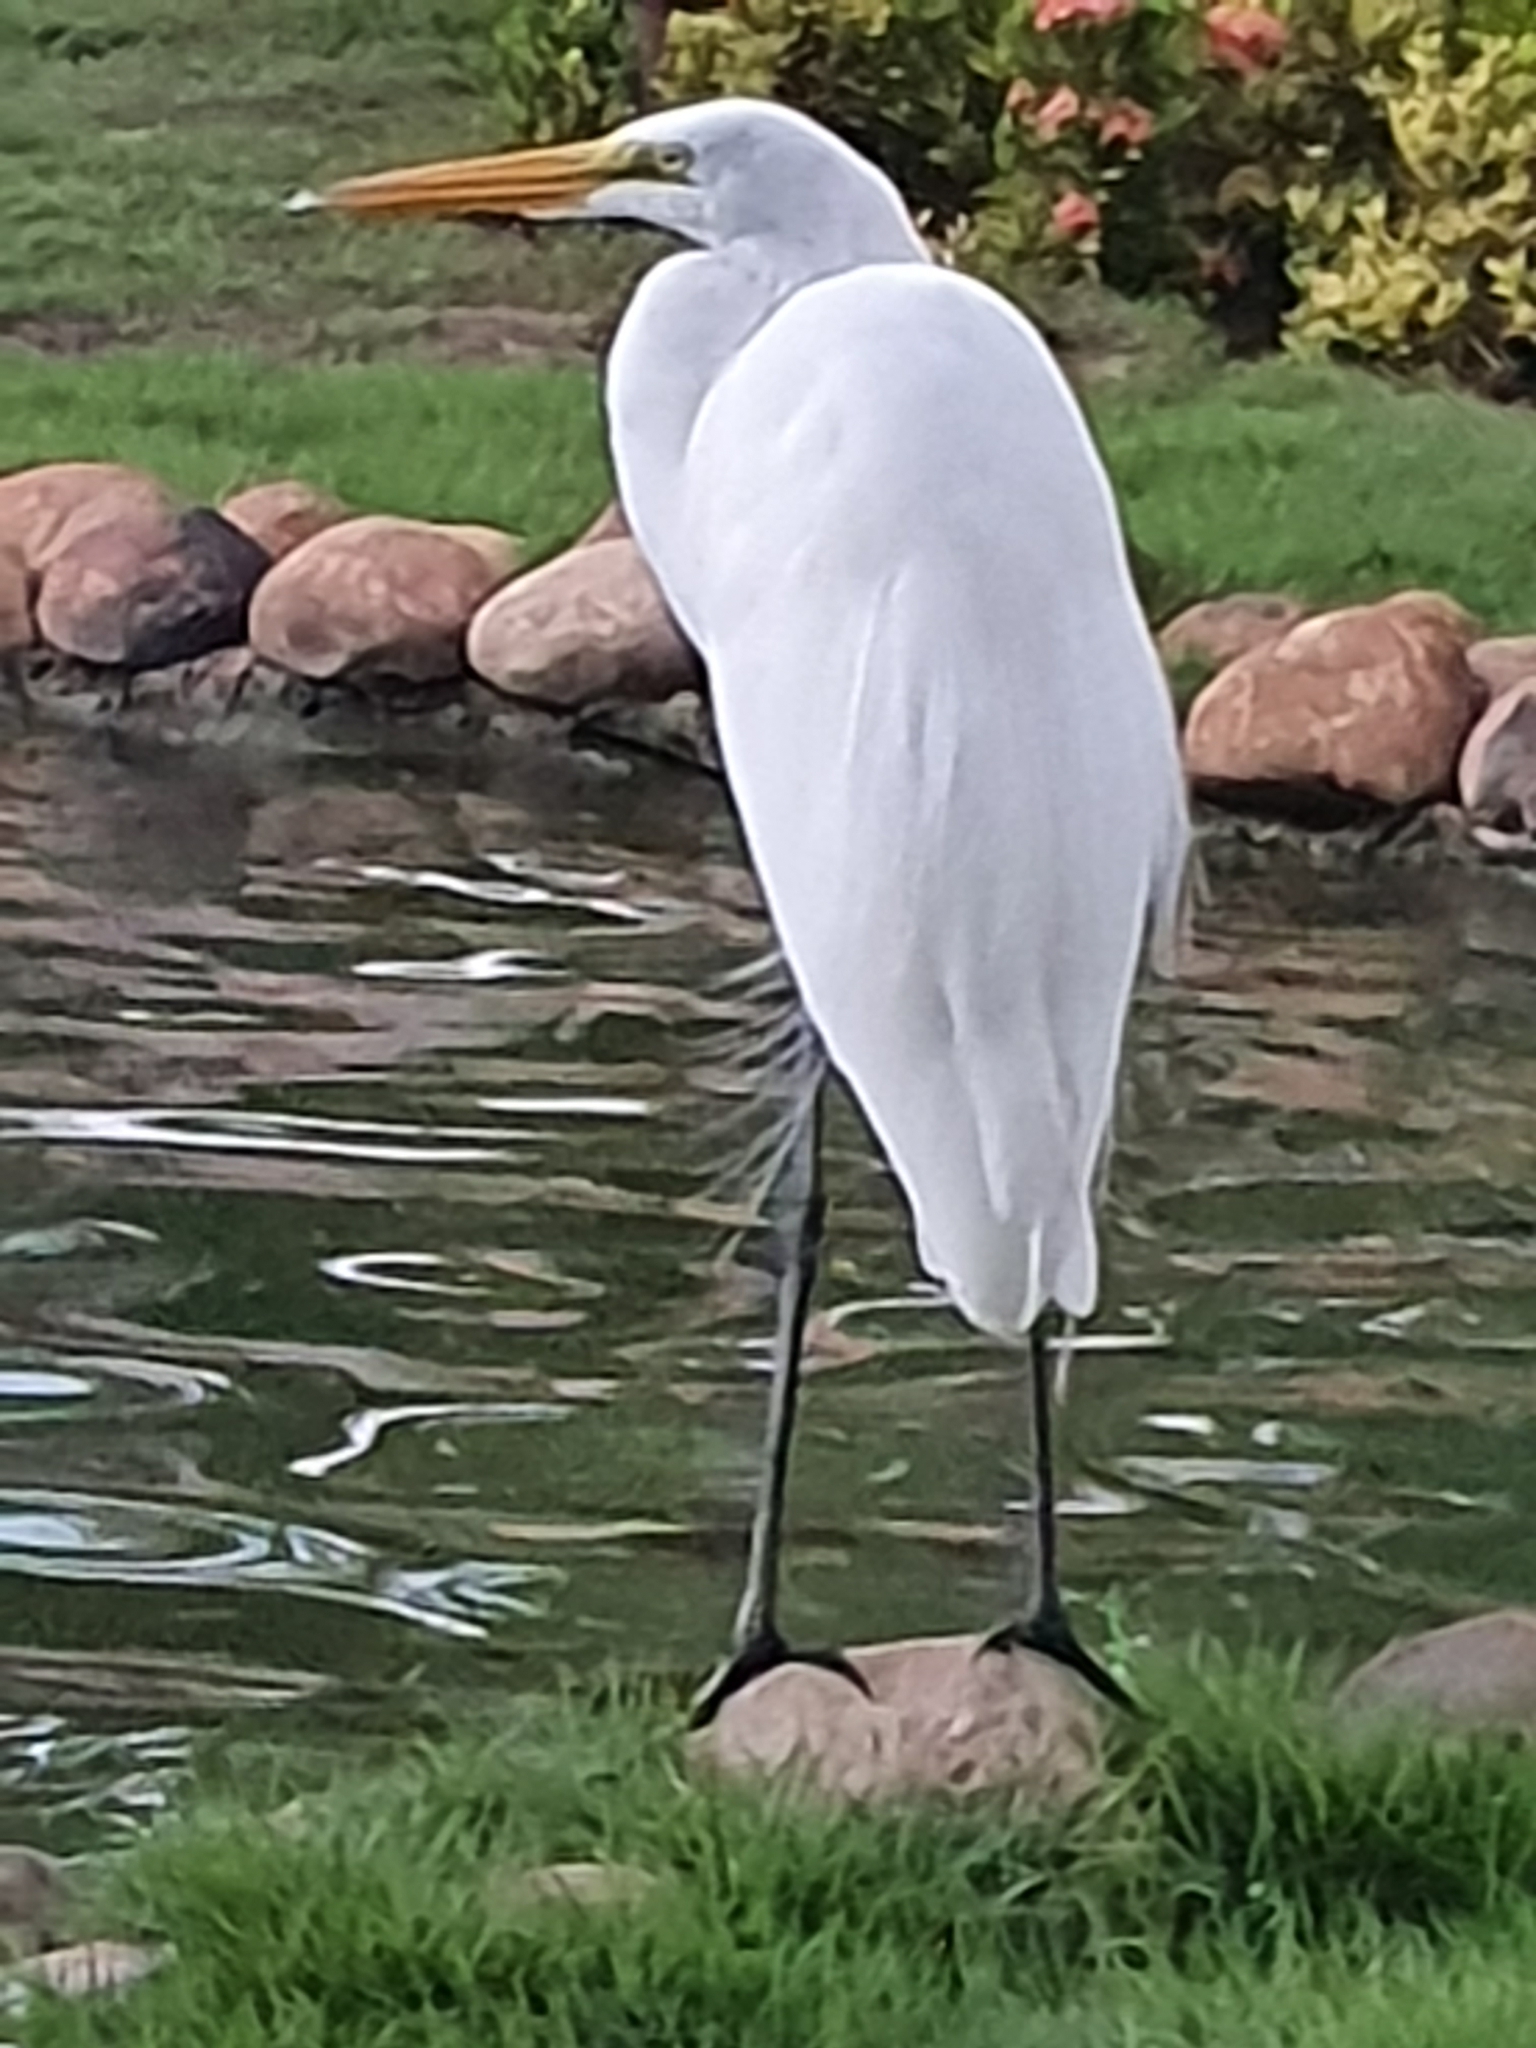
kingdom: Animalia
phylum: Chordata
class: Aves
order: Pelecaniformes
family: Ardeidae
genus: Ardea
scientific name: Ardea alba
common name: Great egret
